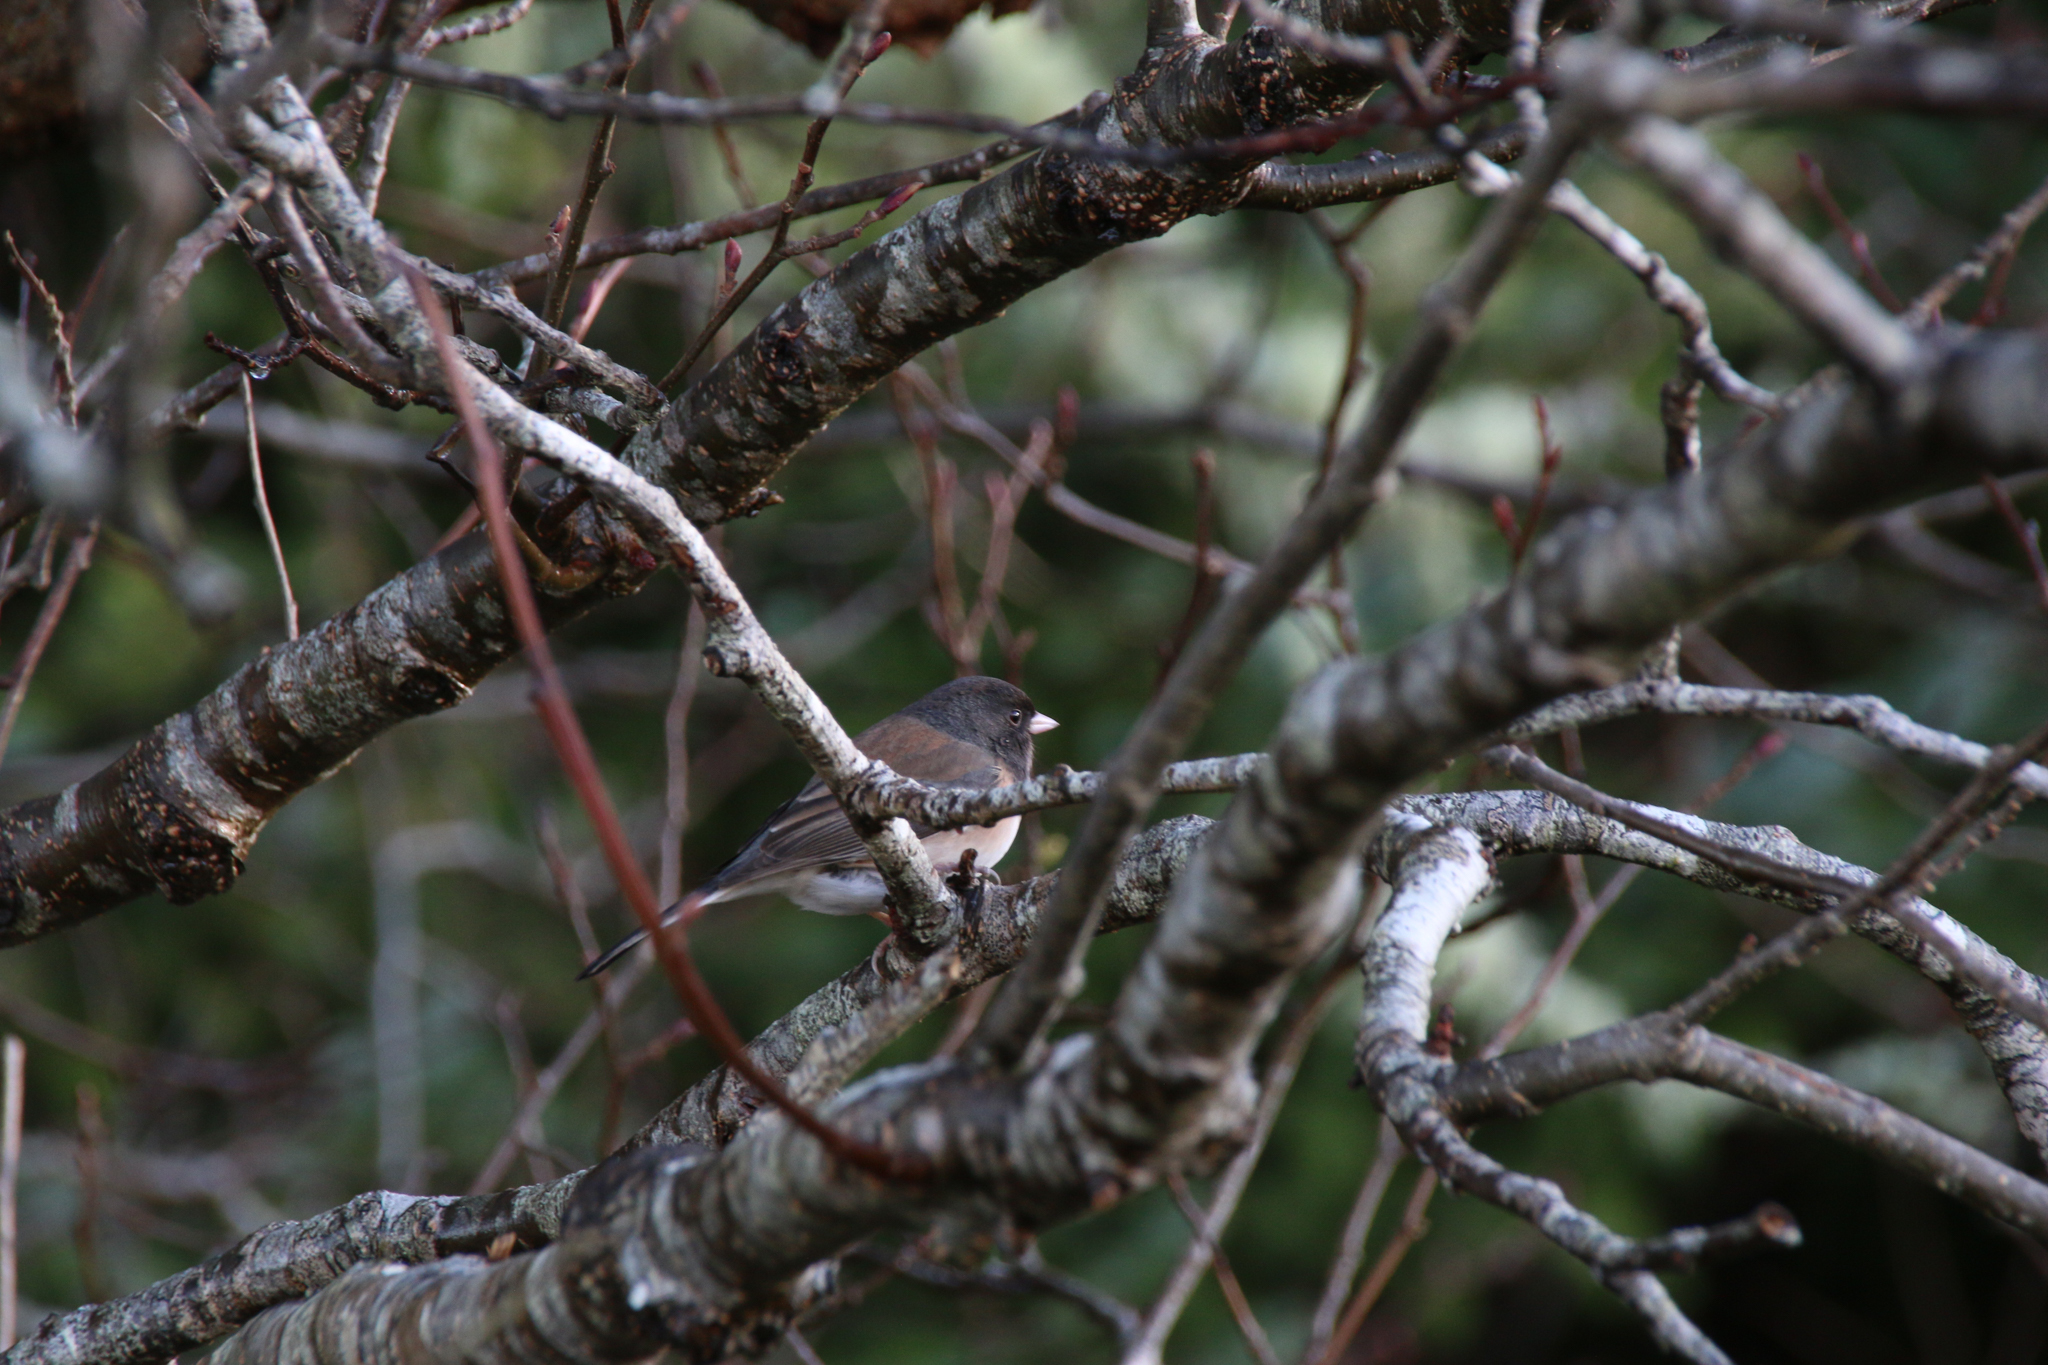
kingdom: Animalia
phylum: Chordata
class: Aves
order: Passeriformes
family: Passerellidae
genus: Junco
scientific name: Junco hyemalis
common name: Dark-eyed junco
